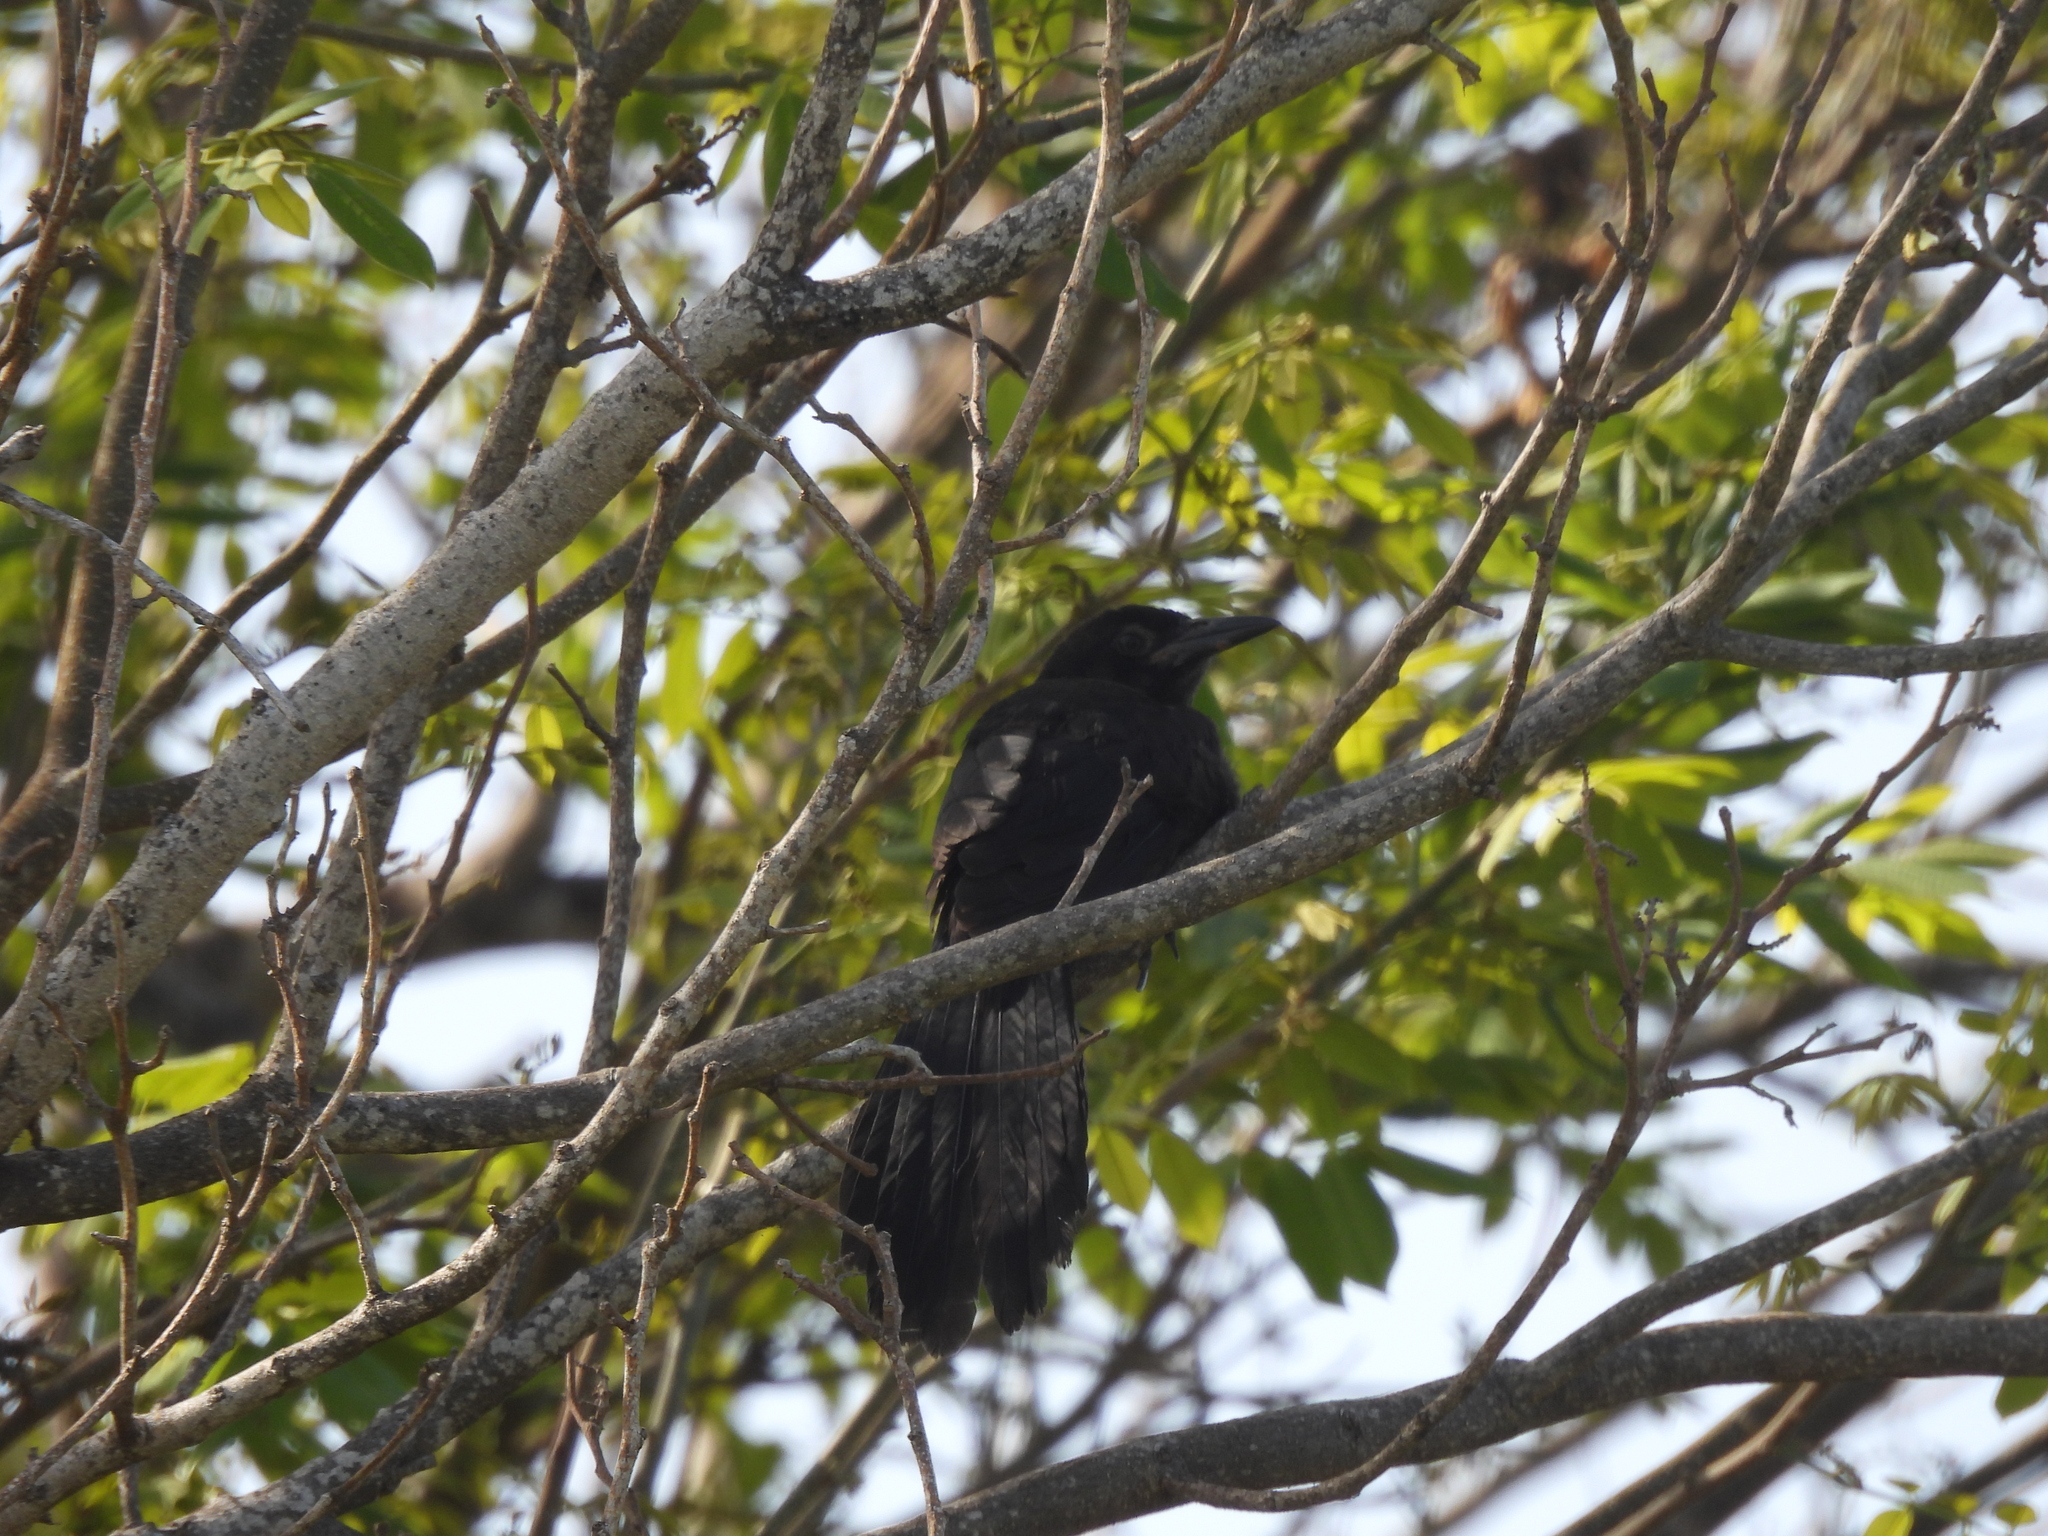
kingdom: Animalia
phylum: Chordata
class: Aves
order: Passeriformes
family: Icteridae
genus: Quiscalus
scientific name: Quiscalus mexicanus
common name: Great-tailed grackle
